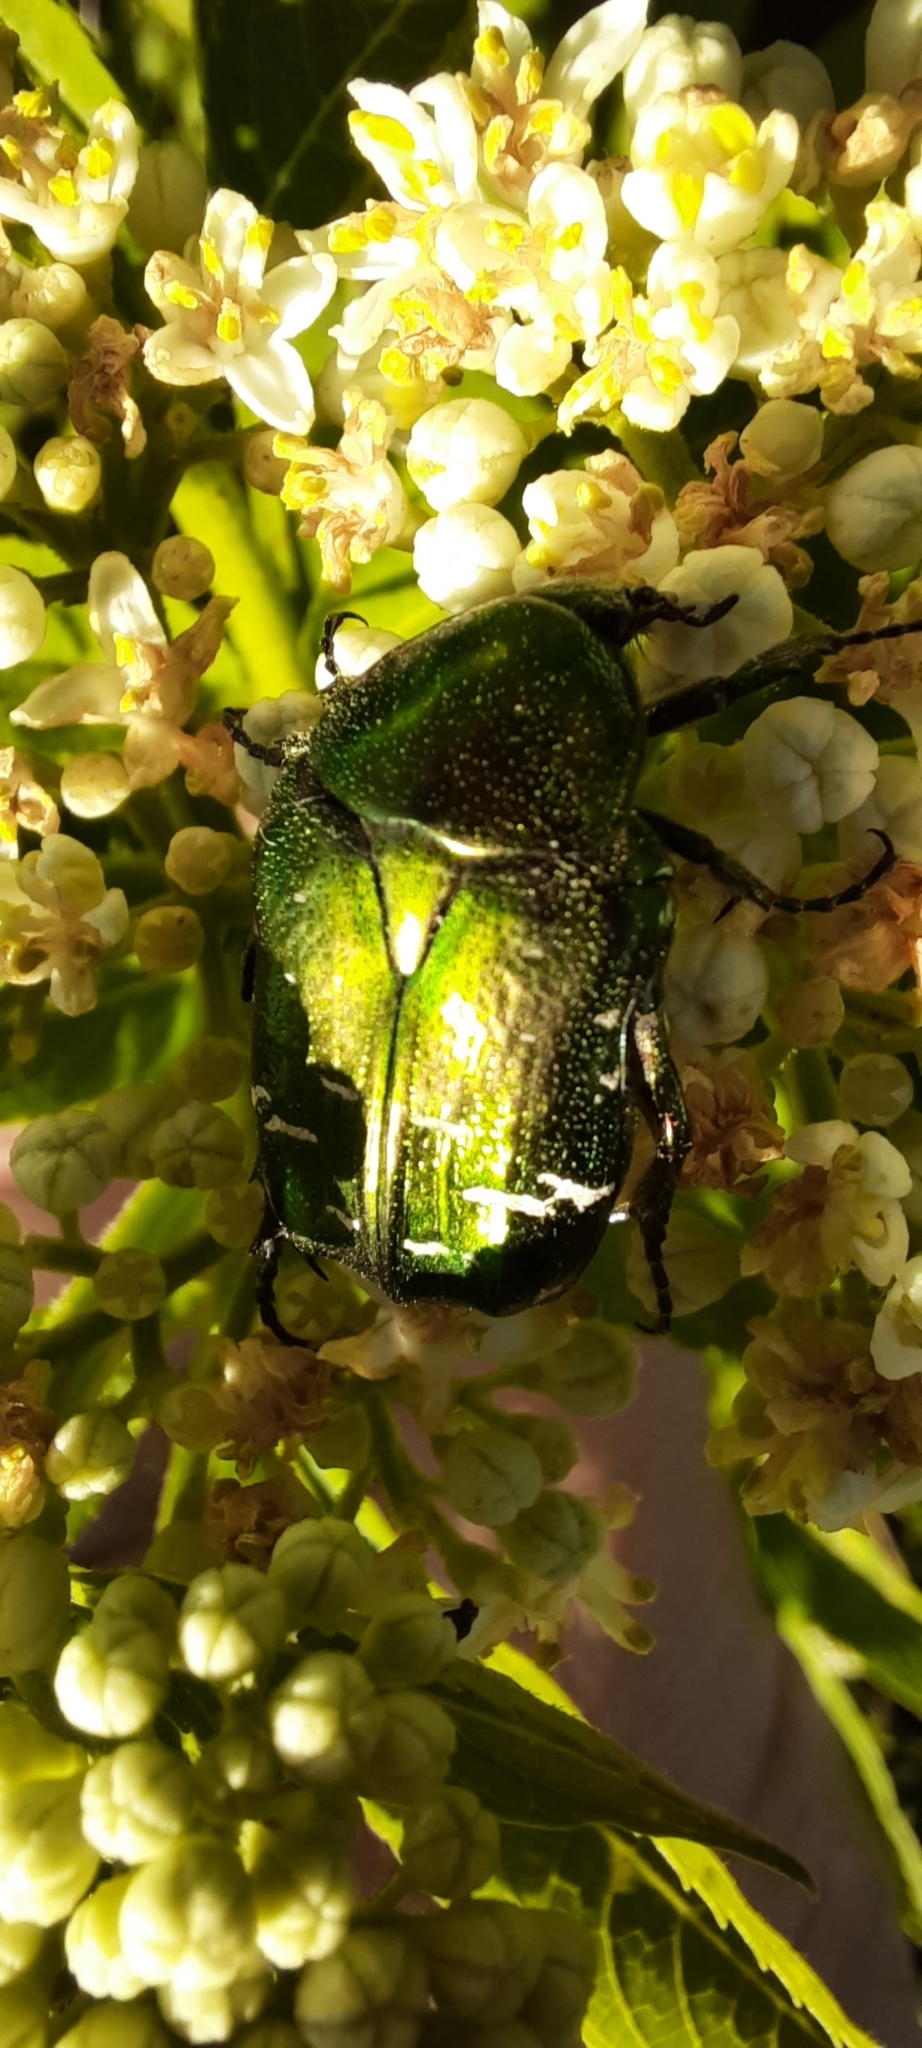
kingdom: Animalia
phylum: Arthropoda
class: Insecta
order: Coleoptera
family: Scarabaeidae
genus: Cetonia
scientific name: Cetonia aurata
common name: Rose chafer
